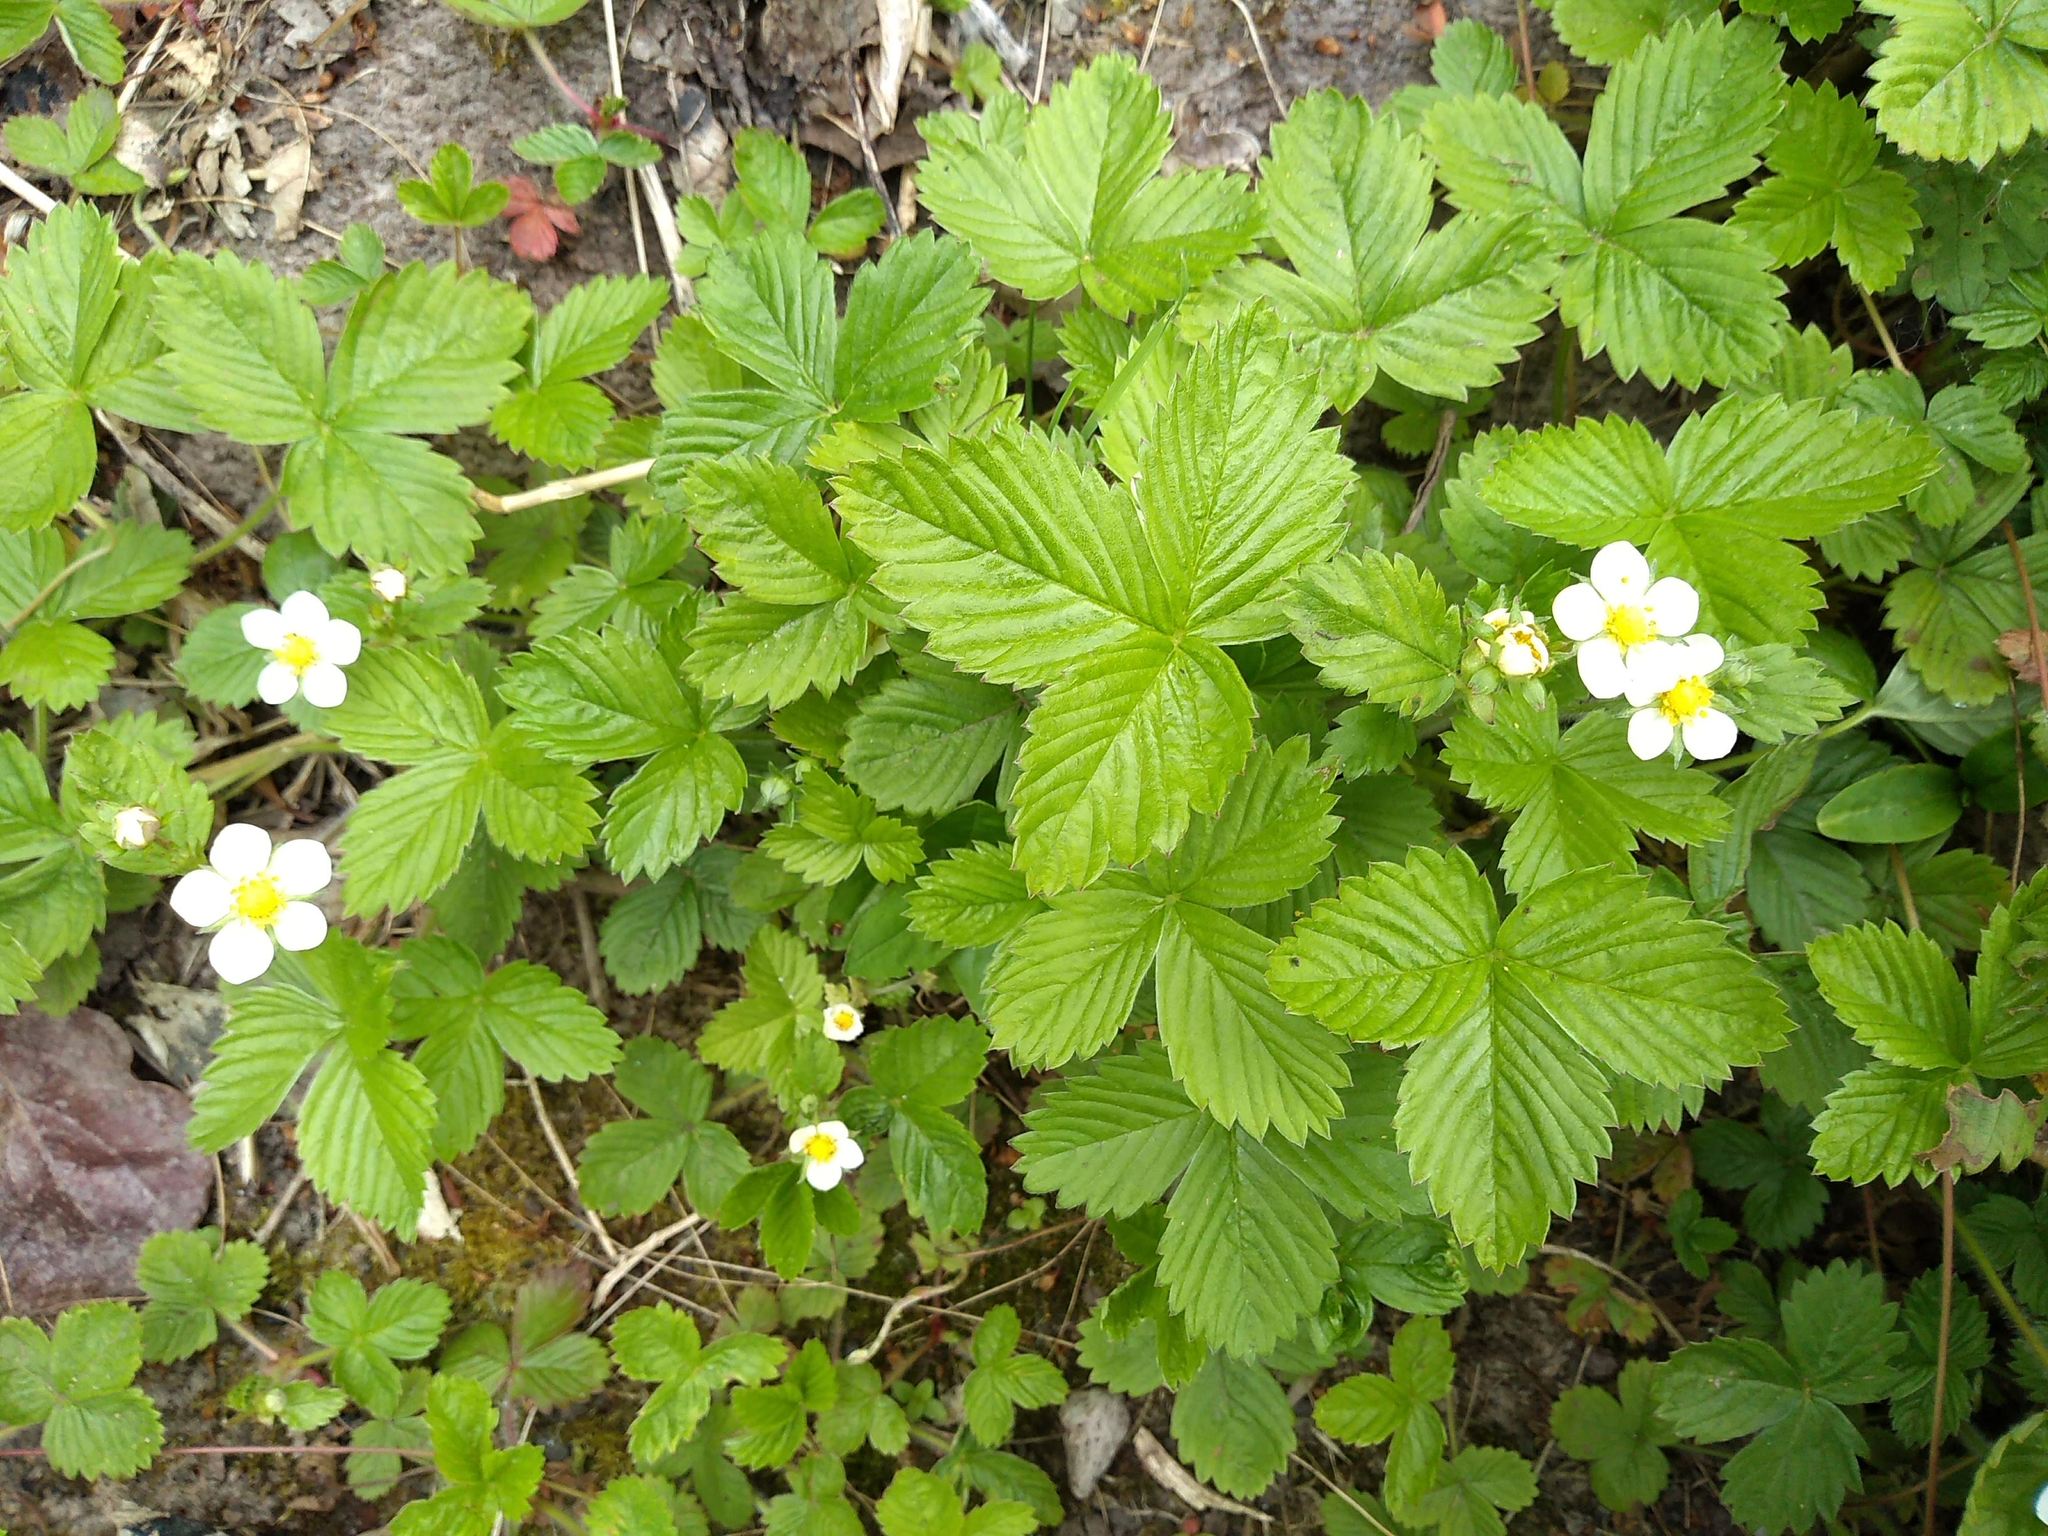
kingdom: Plantae
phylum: Tracheophyta
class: Magnoliopsida
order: Rosales
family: Rosaceae
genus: Fragaria
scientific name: Fragaria vesca
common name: Wild strawberry
